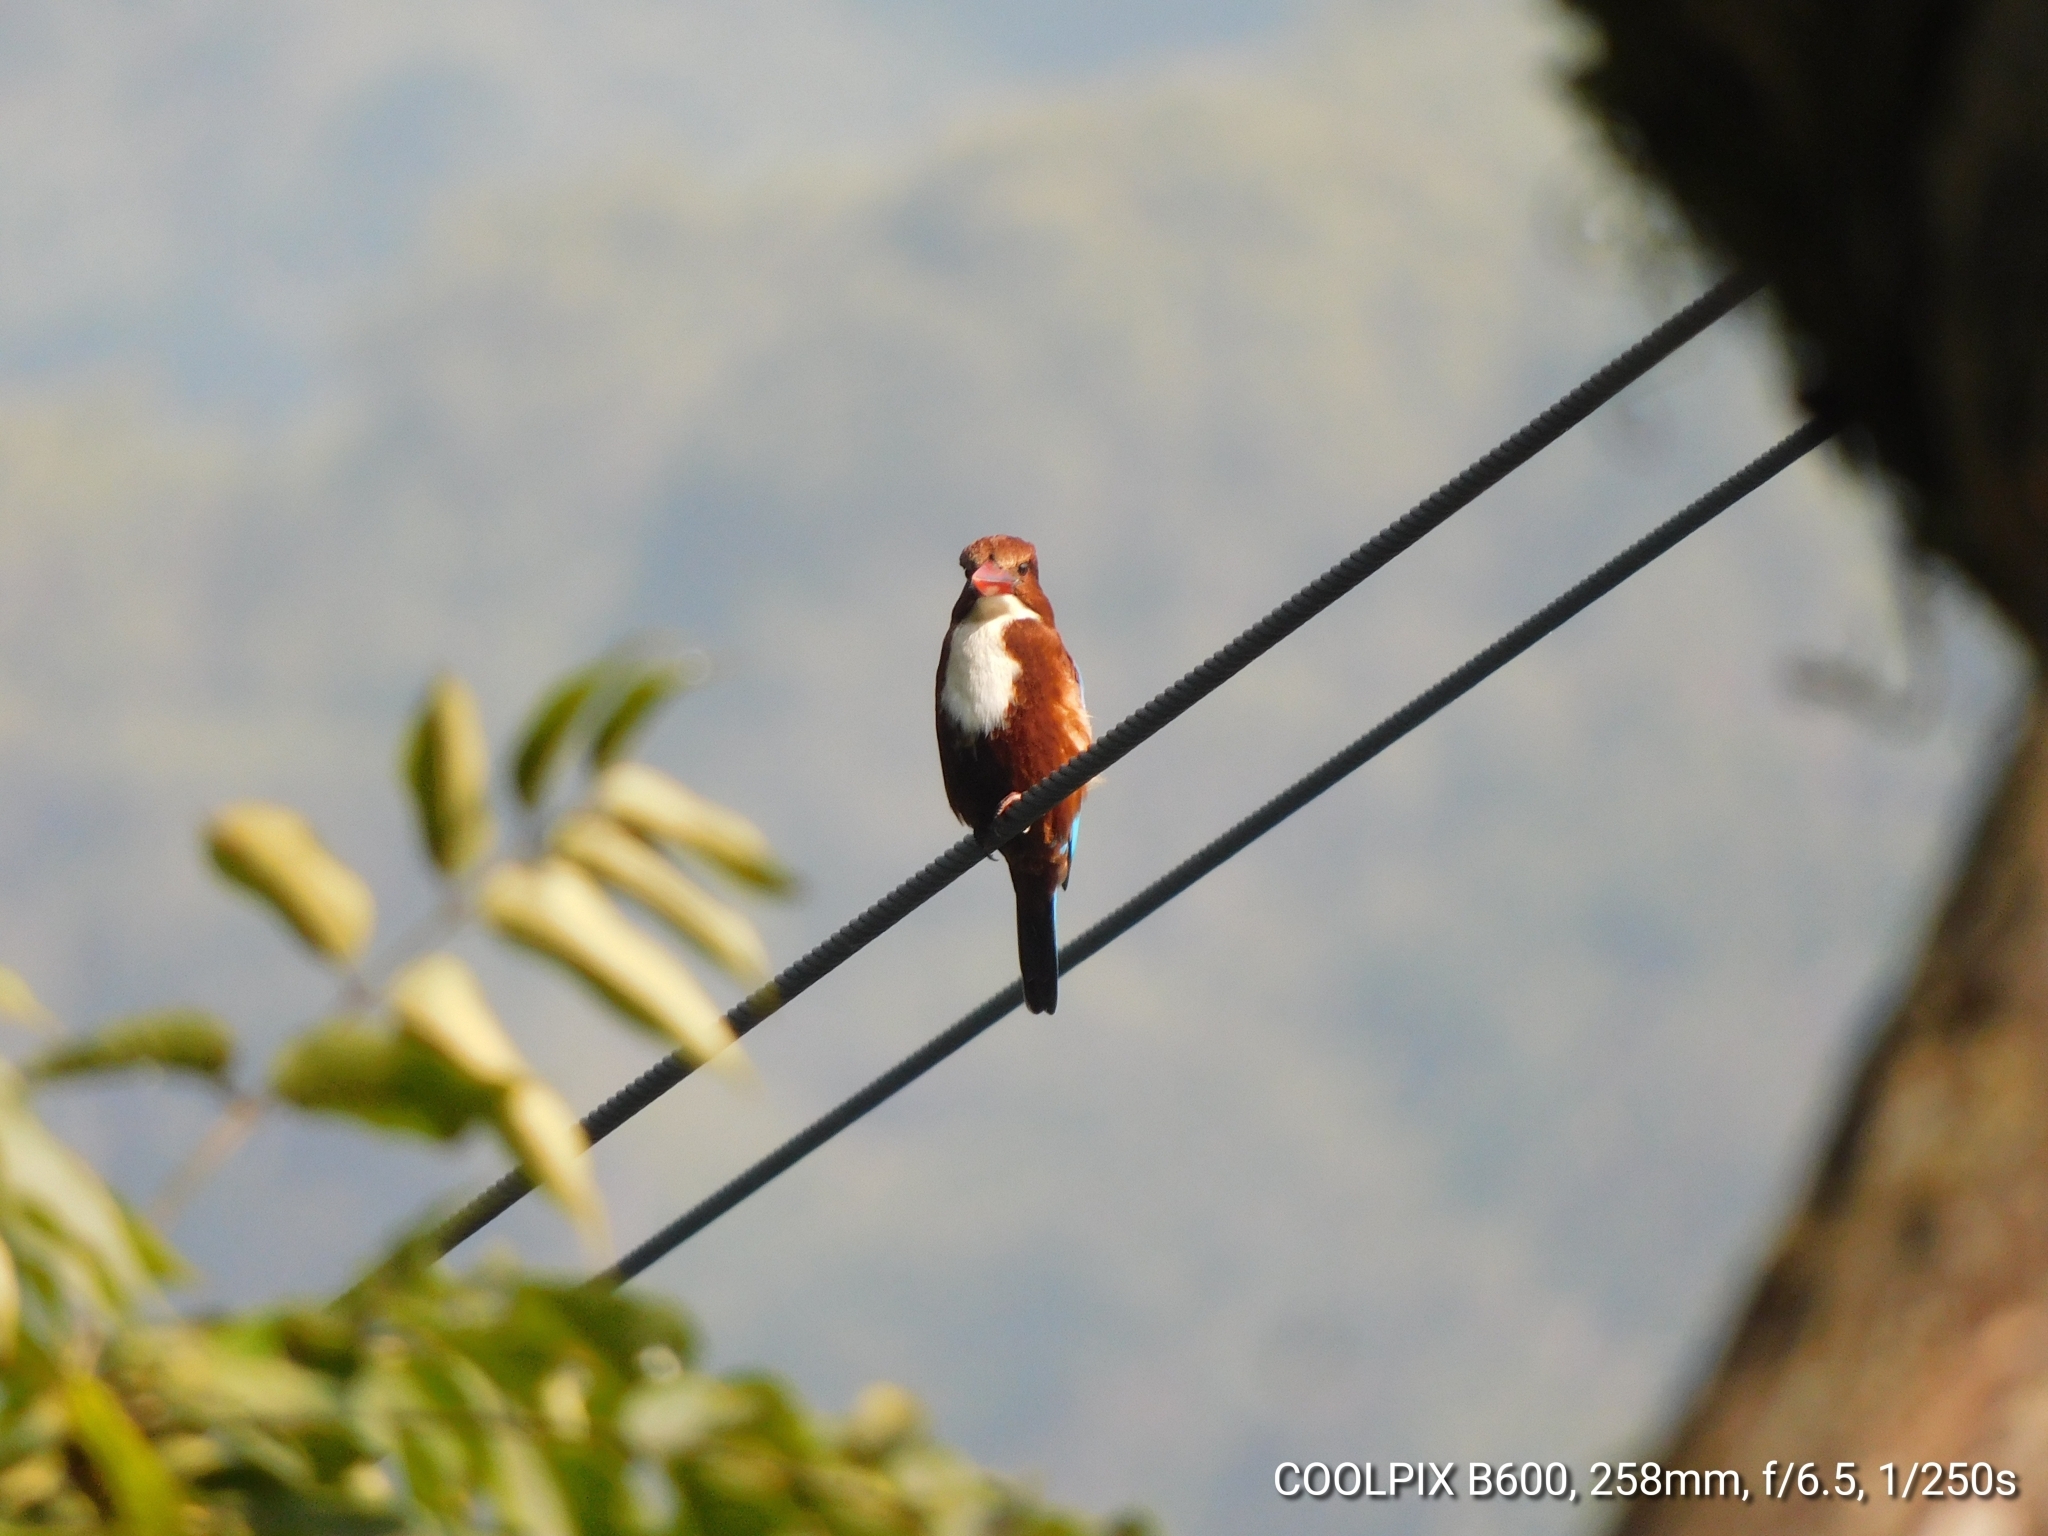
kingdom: Animalia
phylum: Chordata
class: Aves
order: Coraciiformes
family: Alcedinidae
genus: Halcyon
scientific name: Halcyon smyrnensis
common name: White-throated kingfisher
